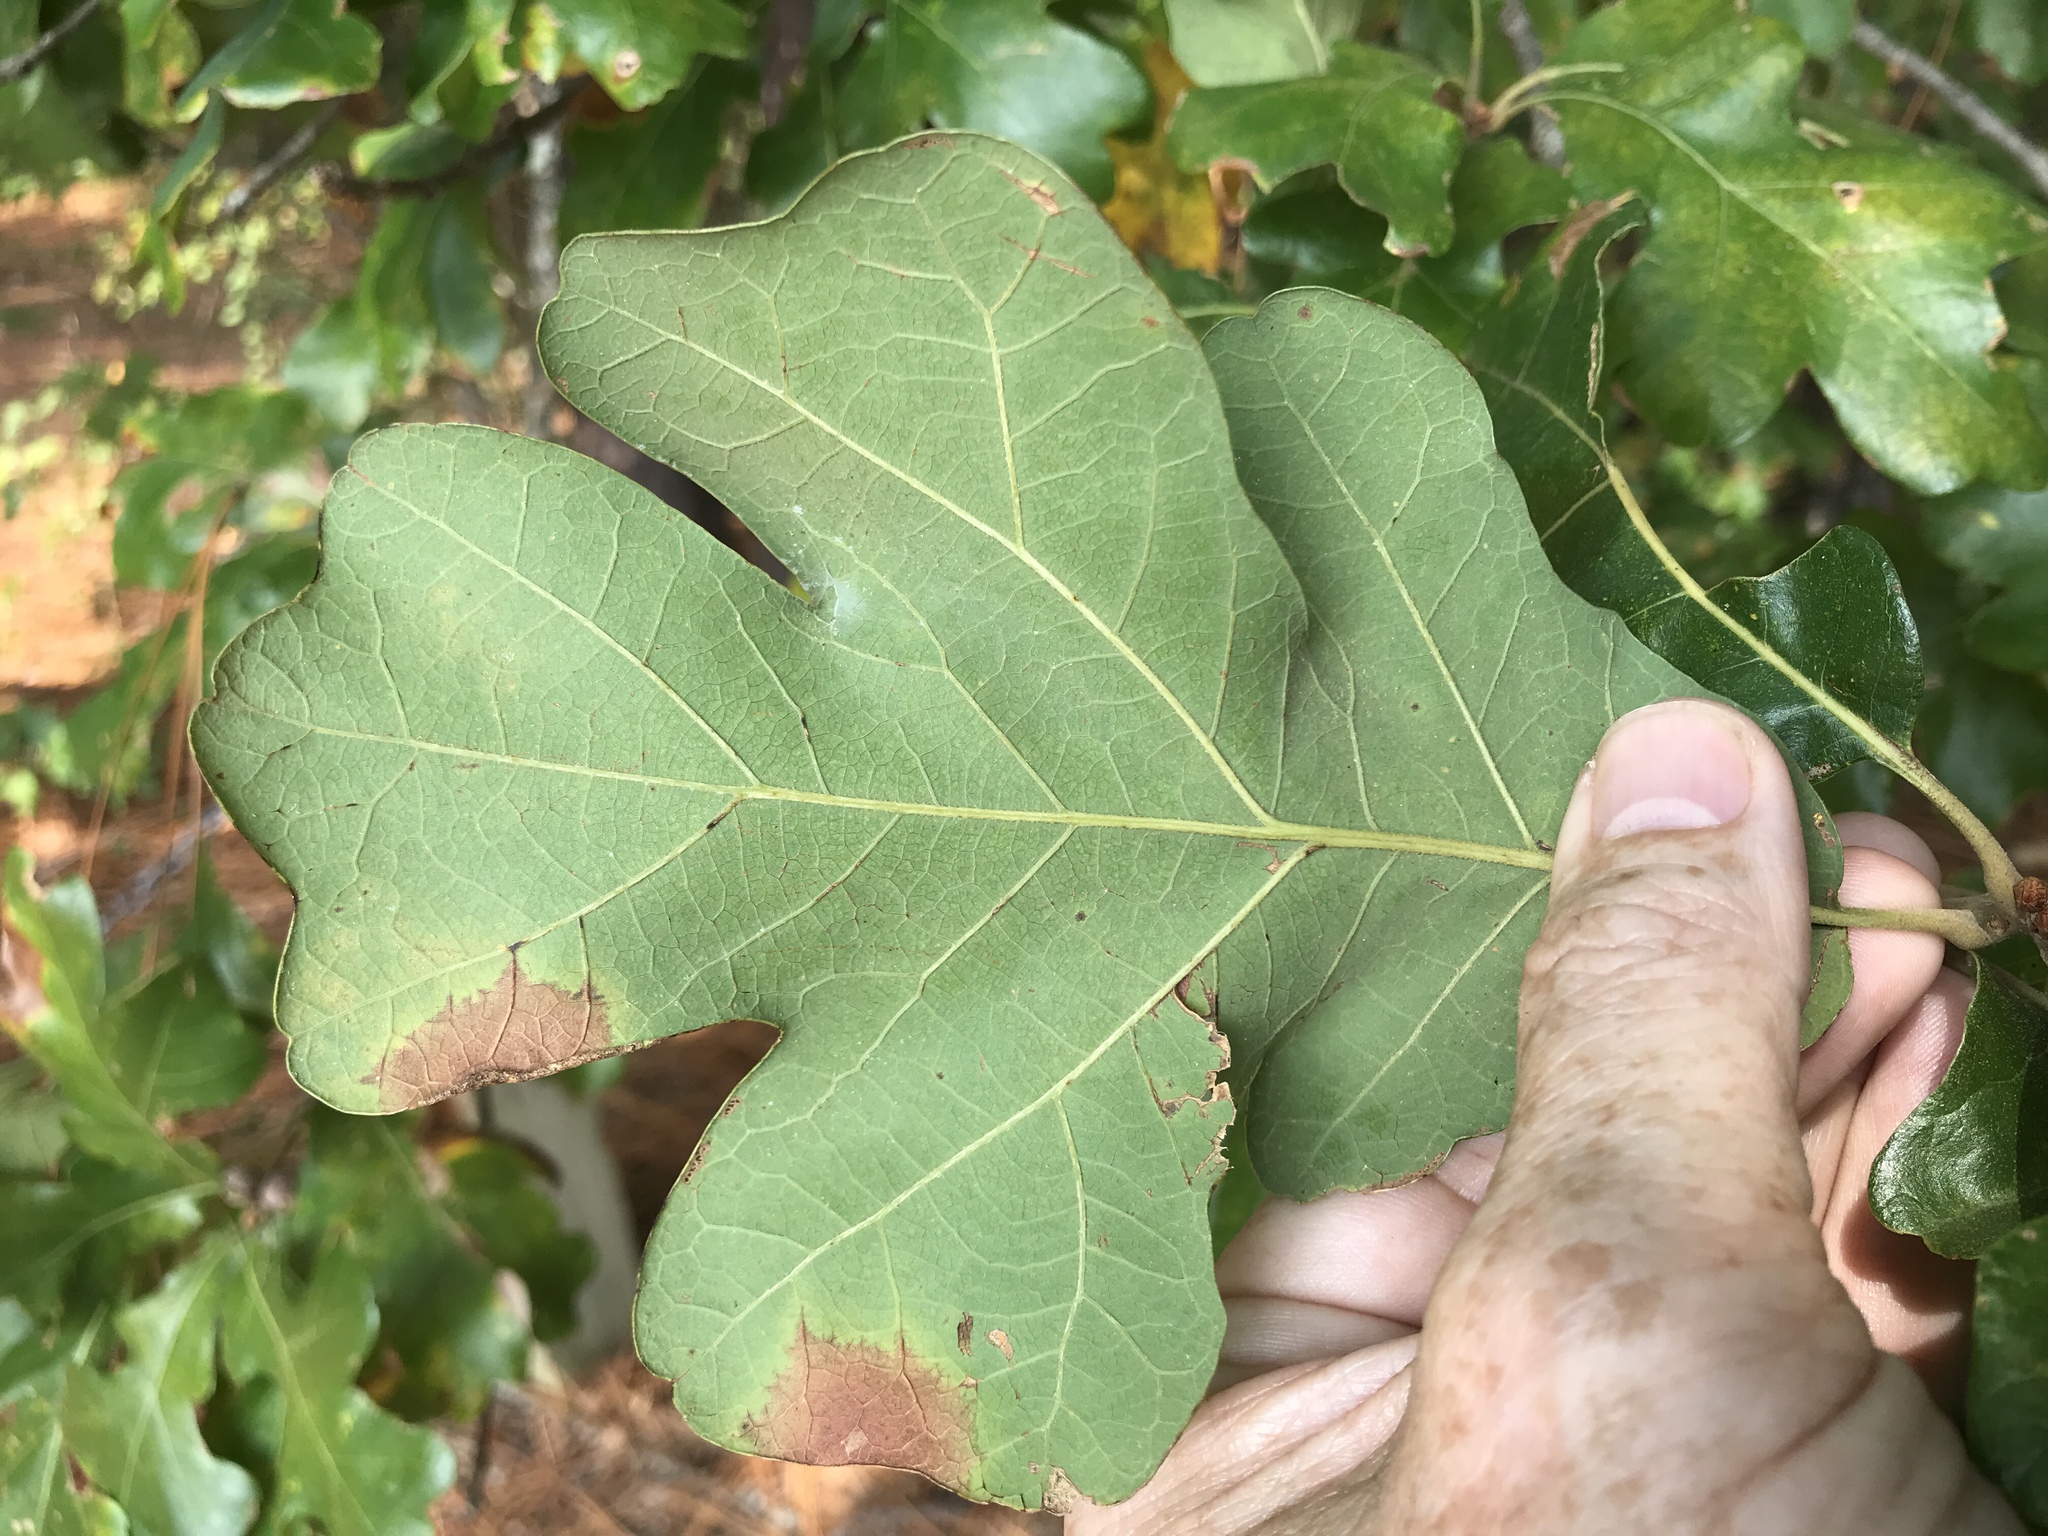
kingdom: Plantae
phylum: Tracheophyta
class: Magnoliopsida
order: Fagales
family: Fagaceae
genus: Quercus
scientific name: Quercus stellata
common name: Post oak
